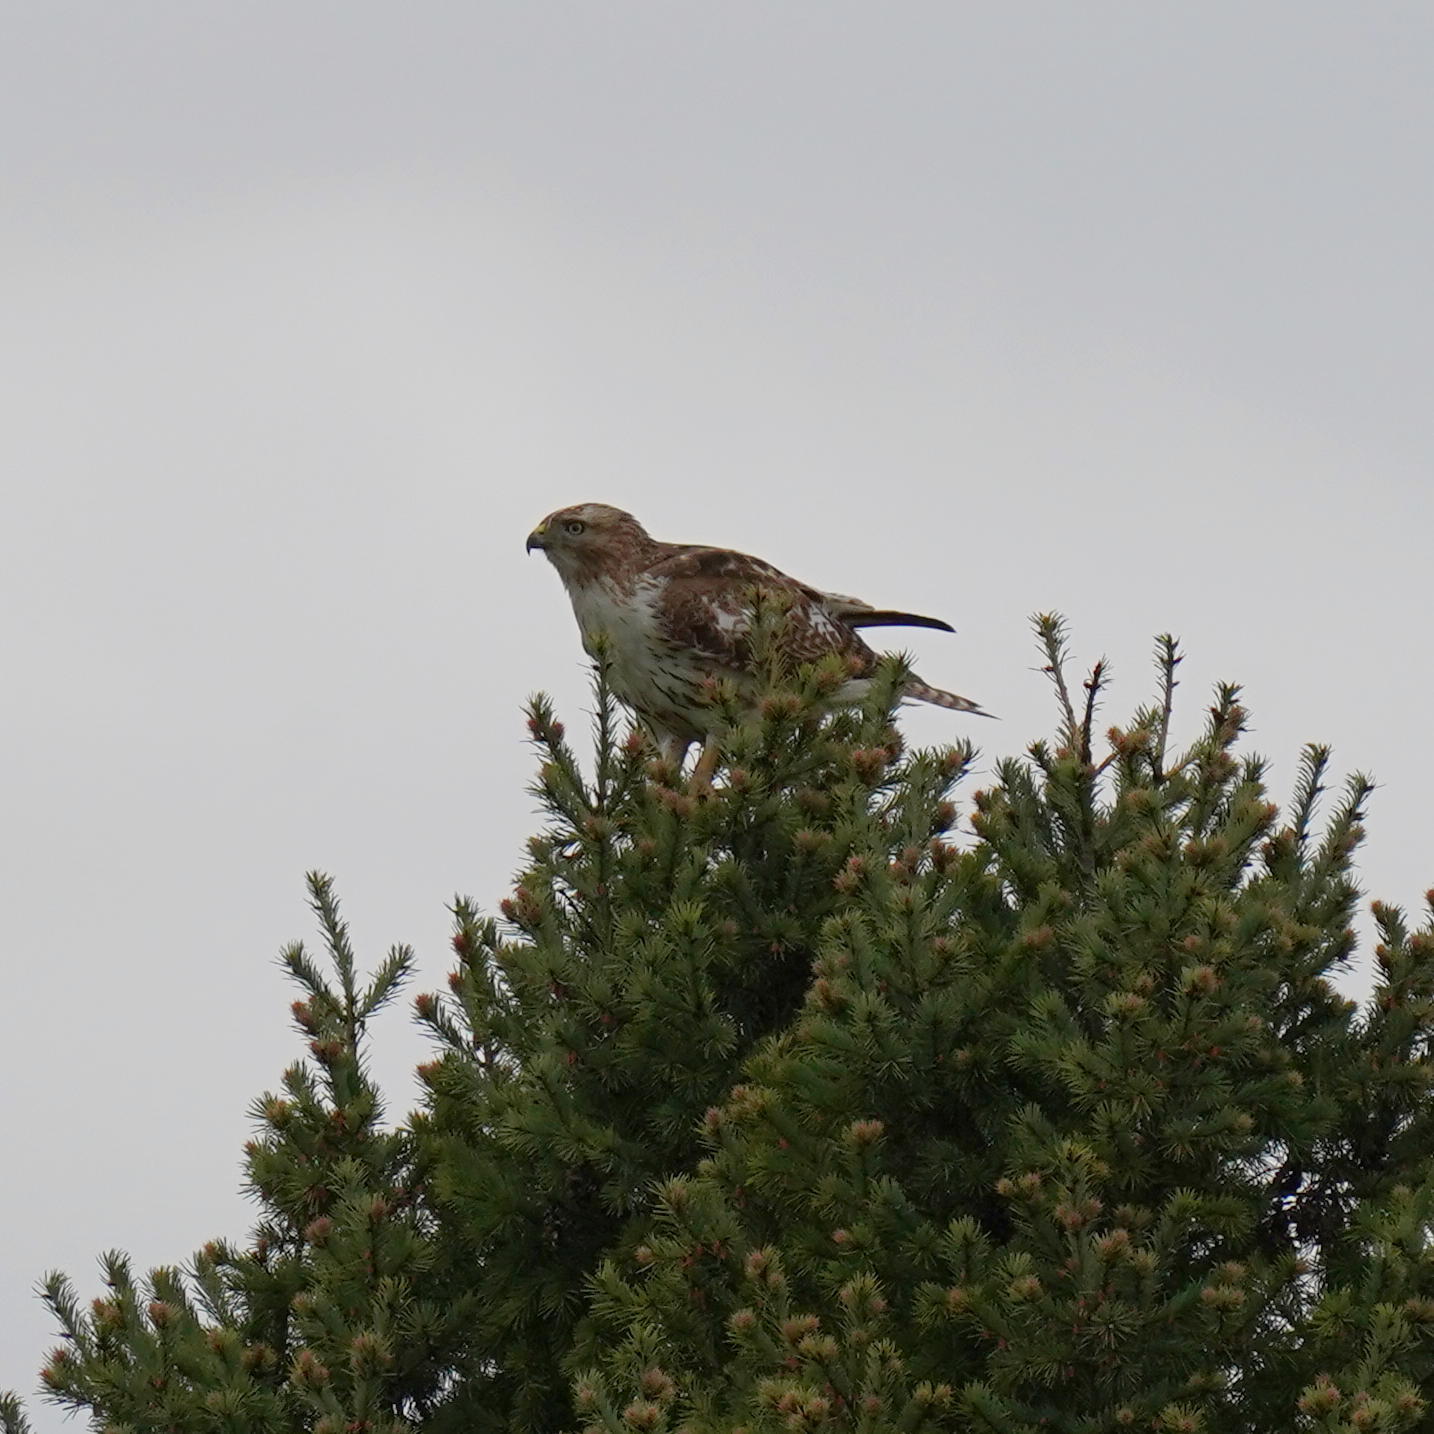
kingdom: Animalia
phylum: Chordata
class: Aves
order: Accipitriformes
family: Accipitridae
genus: Buteo
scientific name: Buteo jamaicensis
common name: Red-tailed hawk
